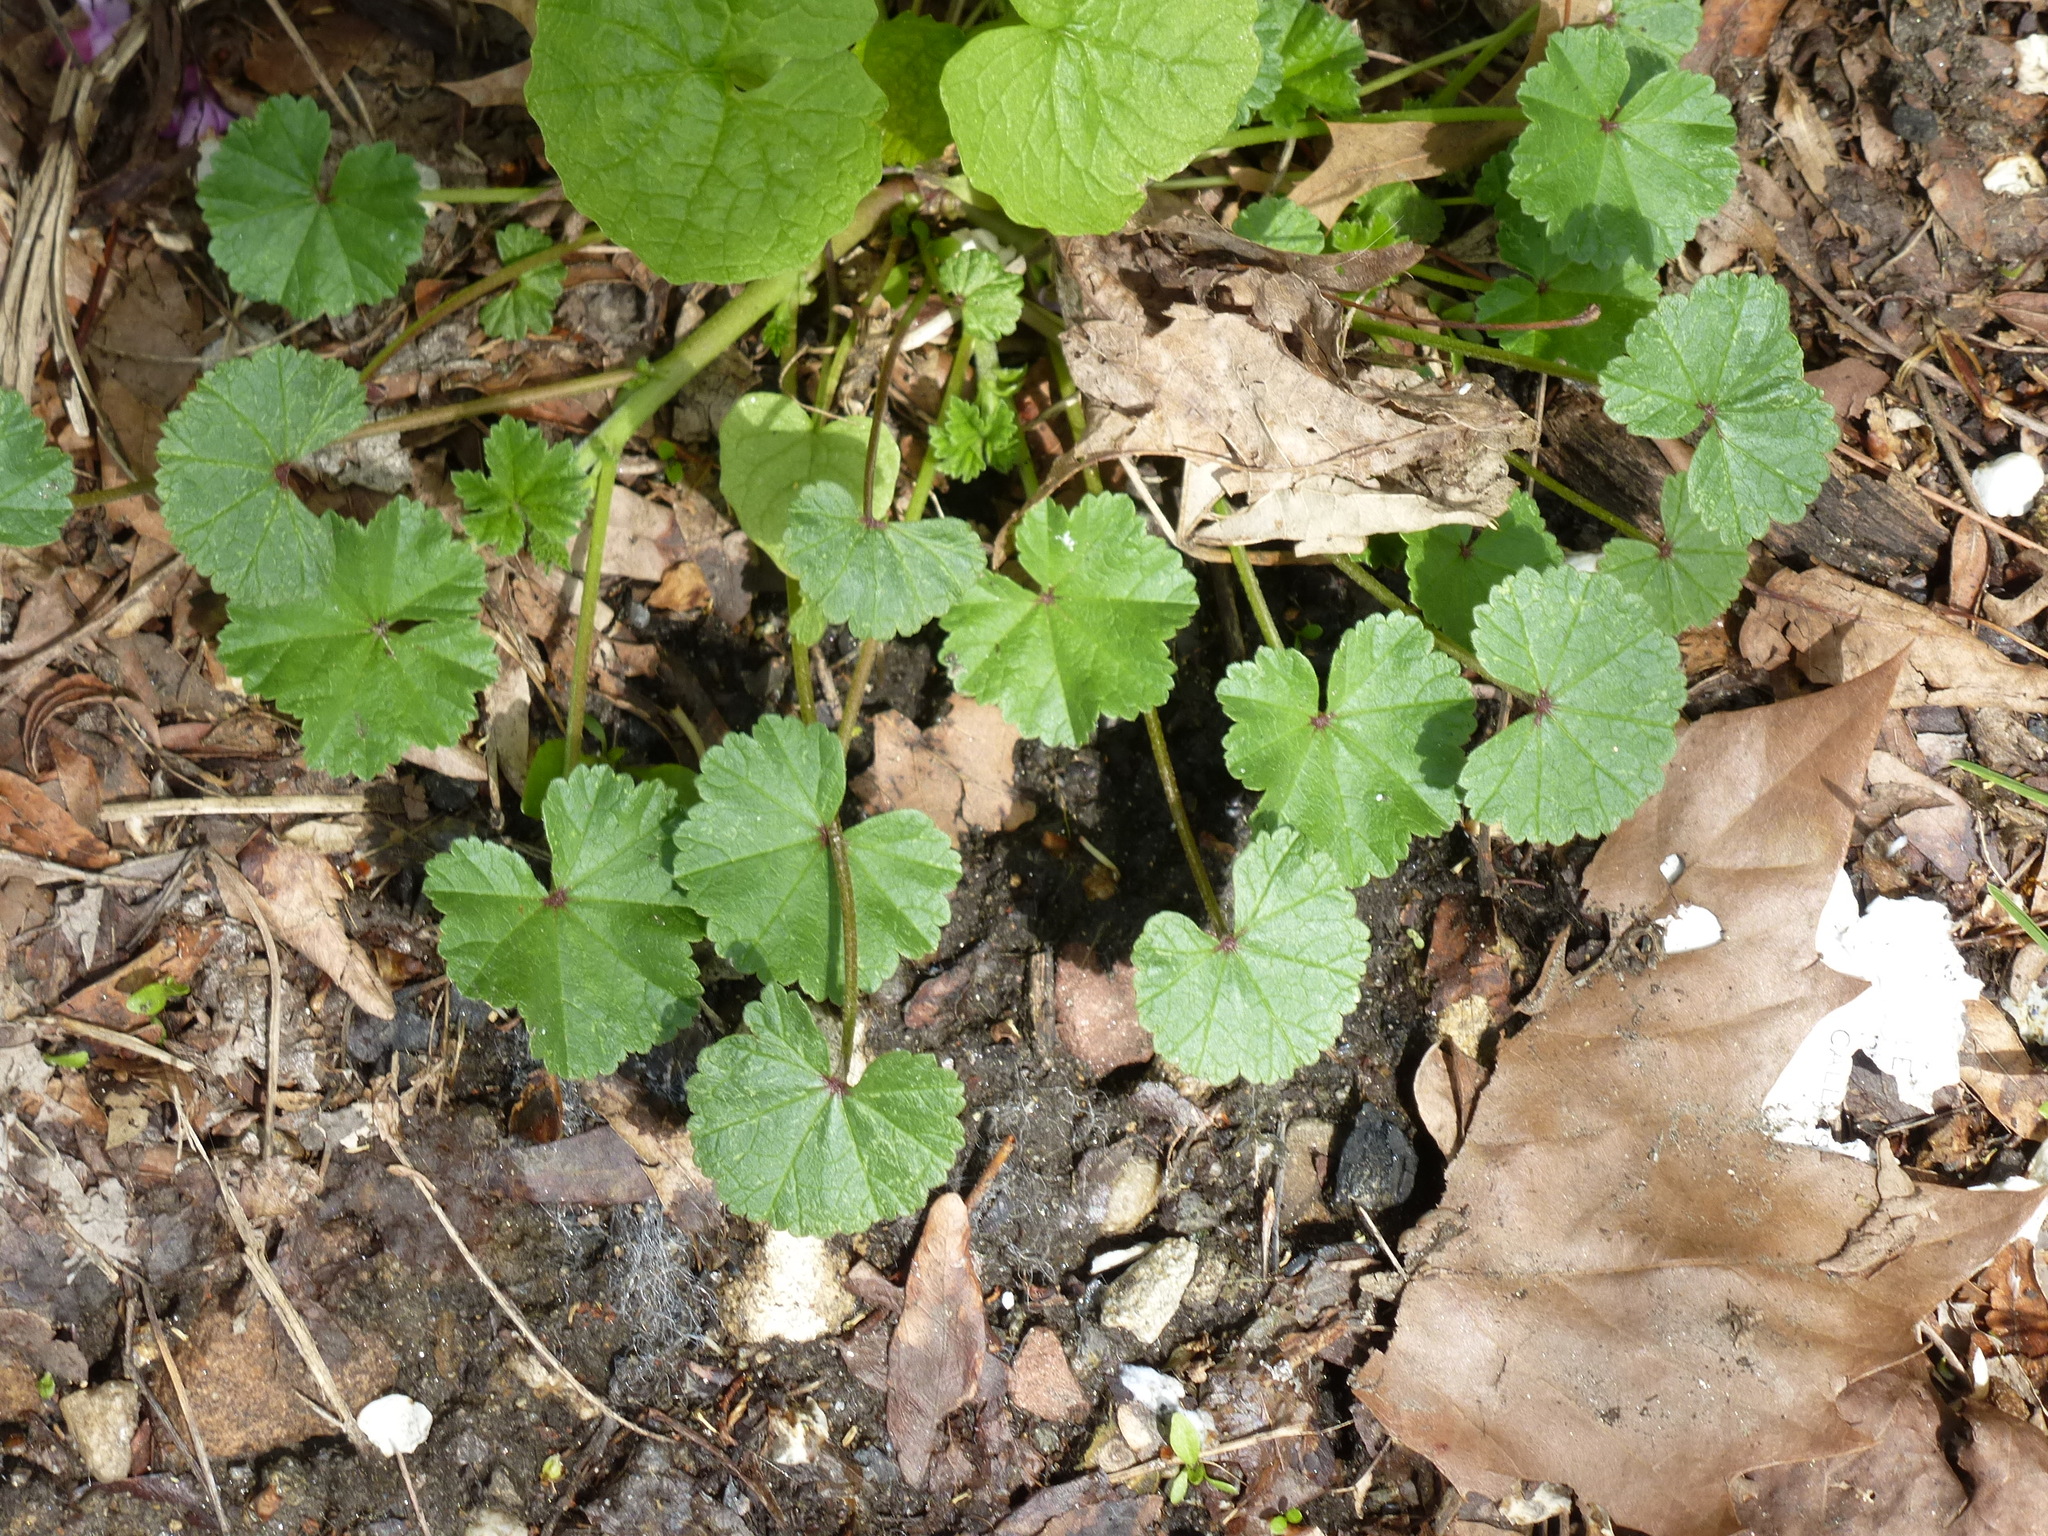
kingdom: Plantae
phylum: Tracheophyta
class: Magnoliopsida
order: Malvales
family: Malvaceae
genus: Malva
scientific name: Malva neglecta
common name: Common mallow
